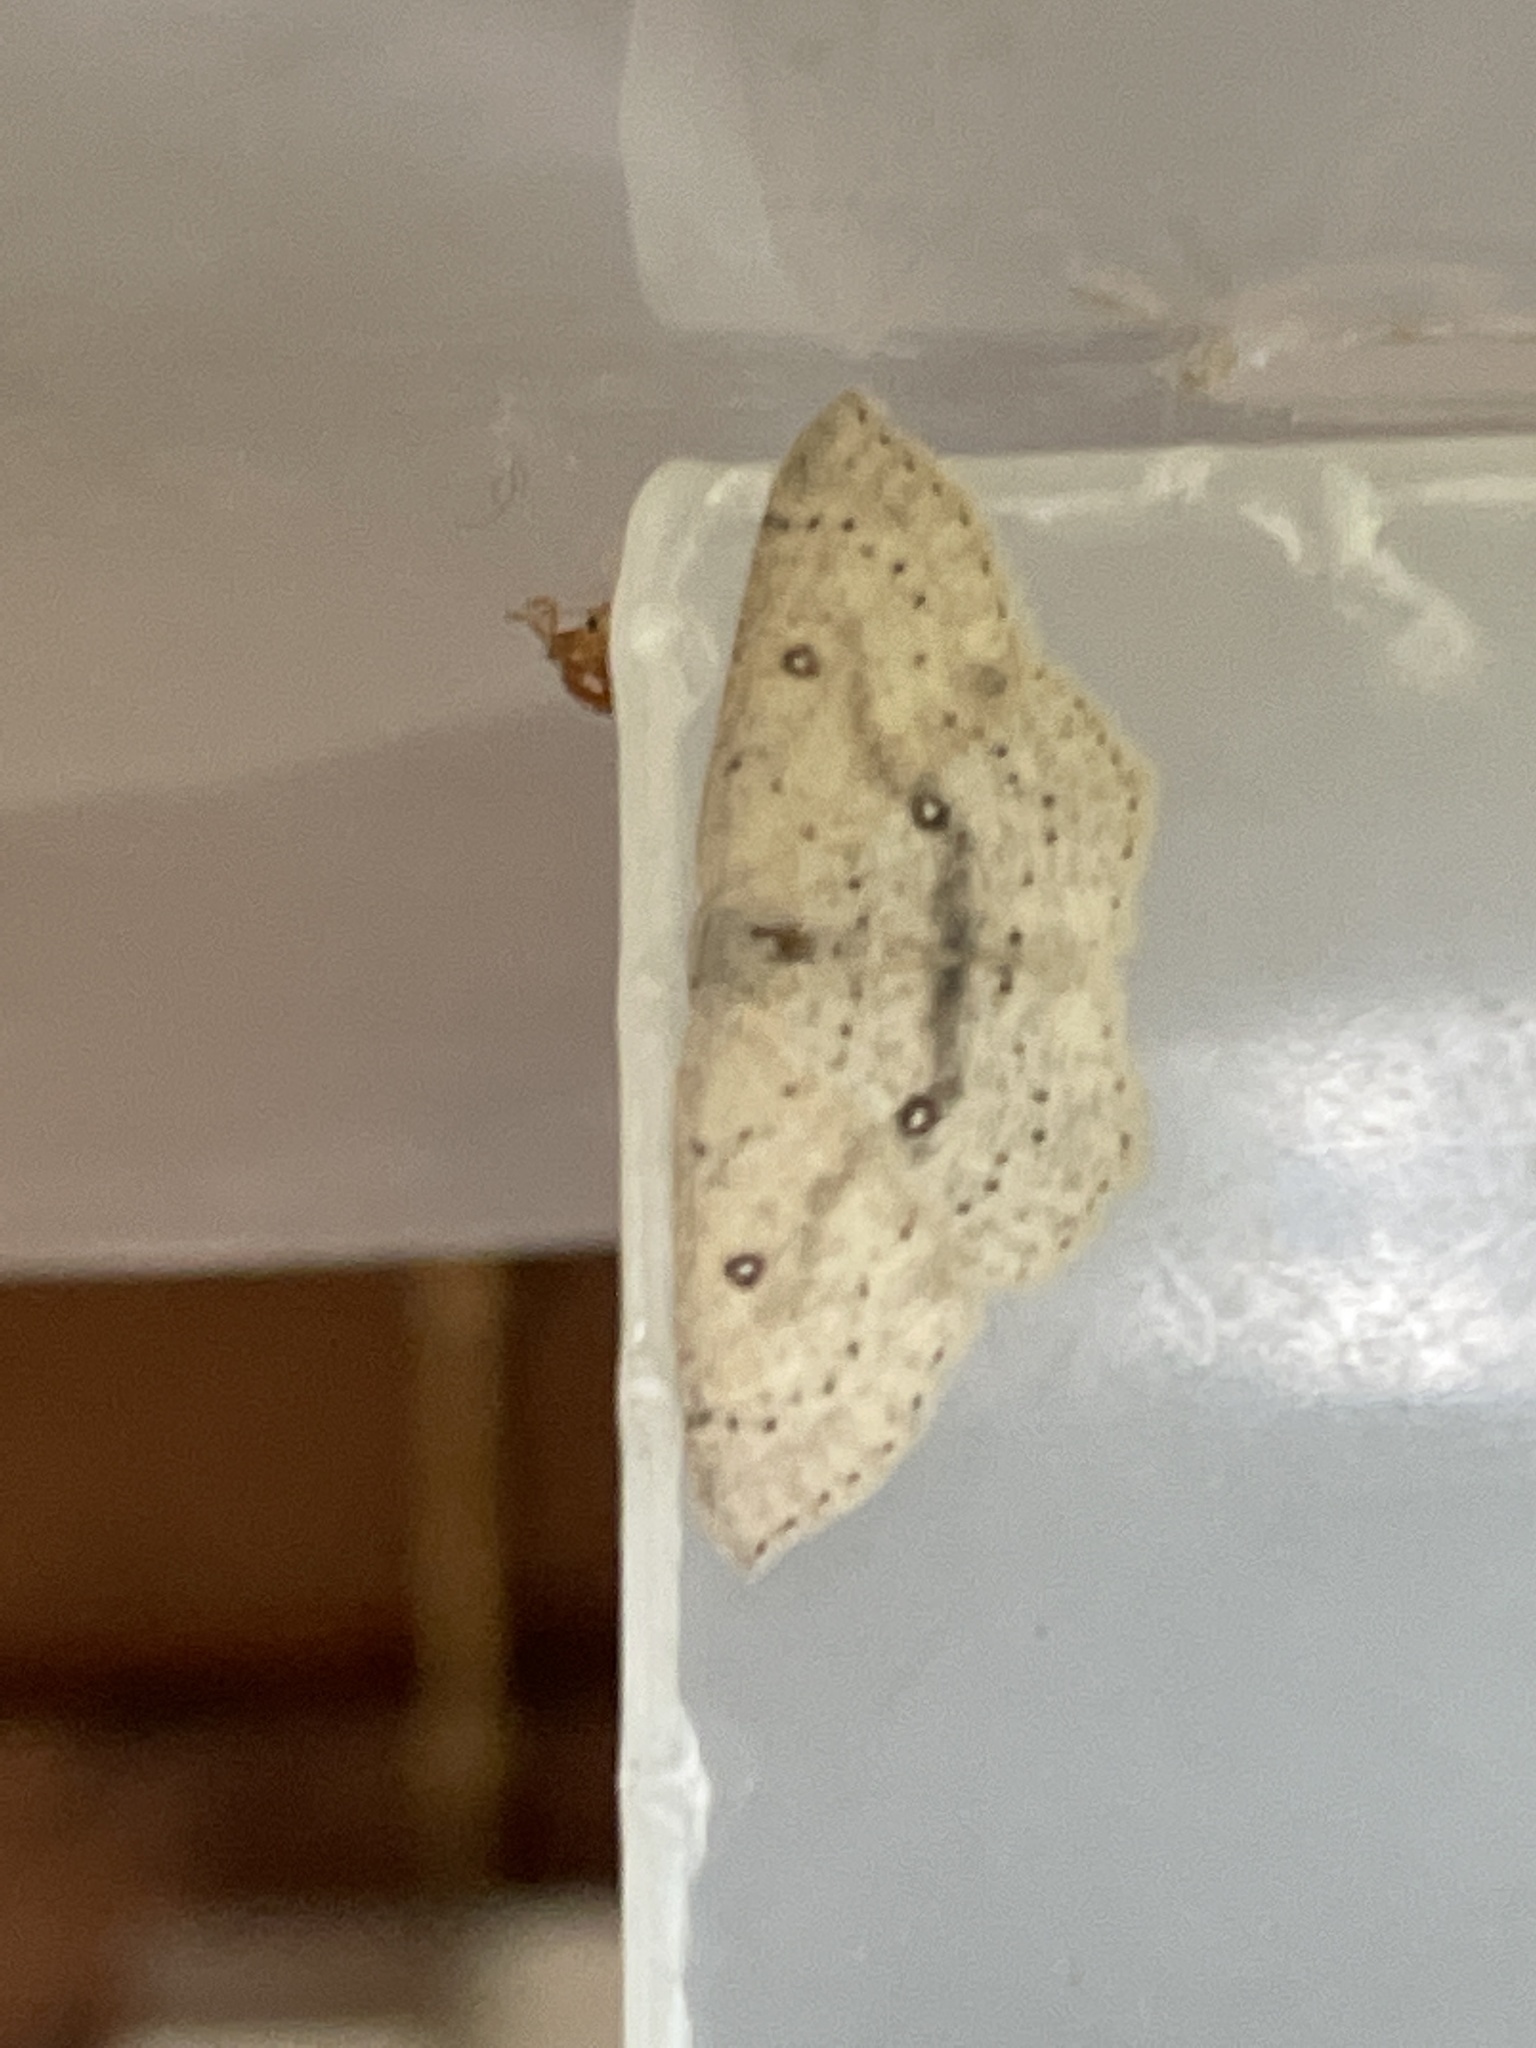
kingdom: Animalia
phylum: Arthropoda
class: Insecta
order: Lepidoptera
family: Geometridae
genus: Cyclophora
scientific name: Cyclophora albipunctata
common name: Birch mocha
